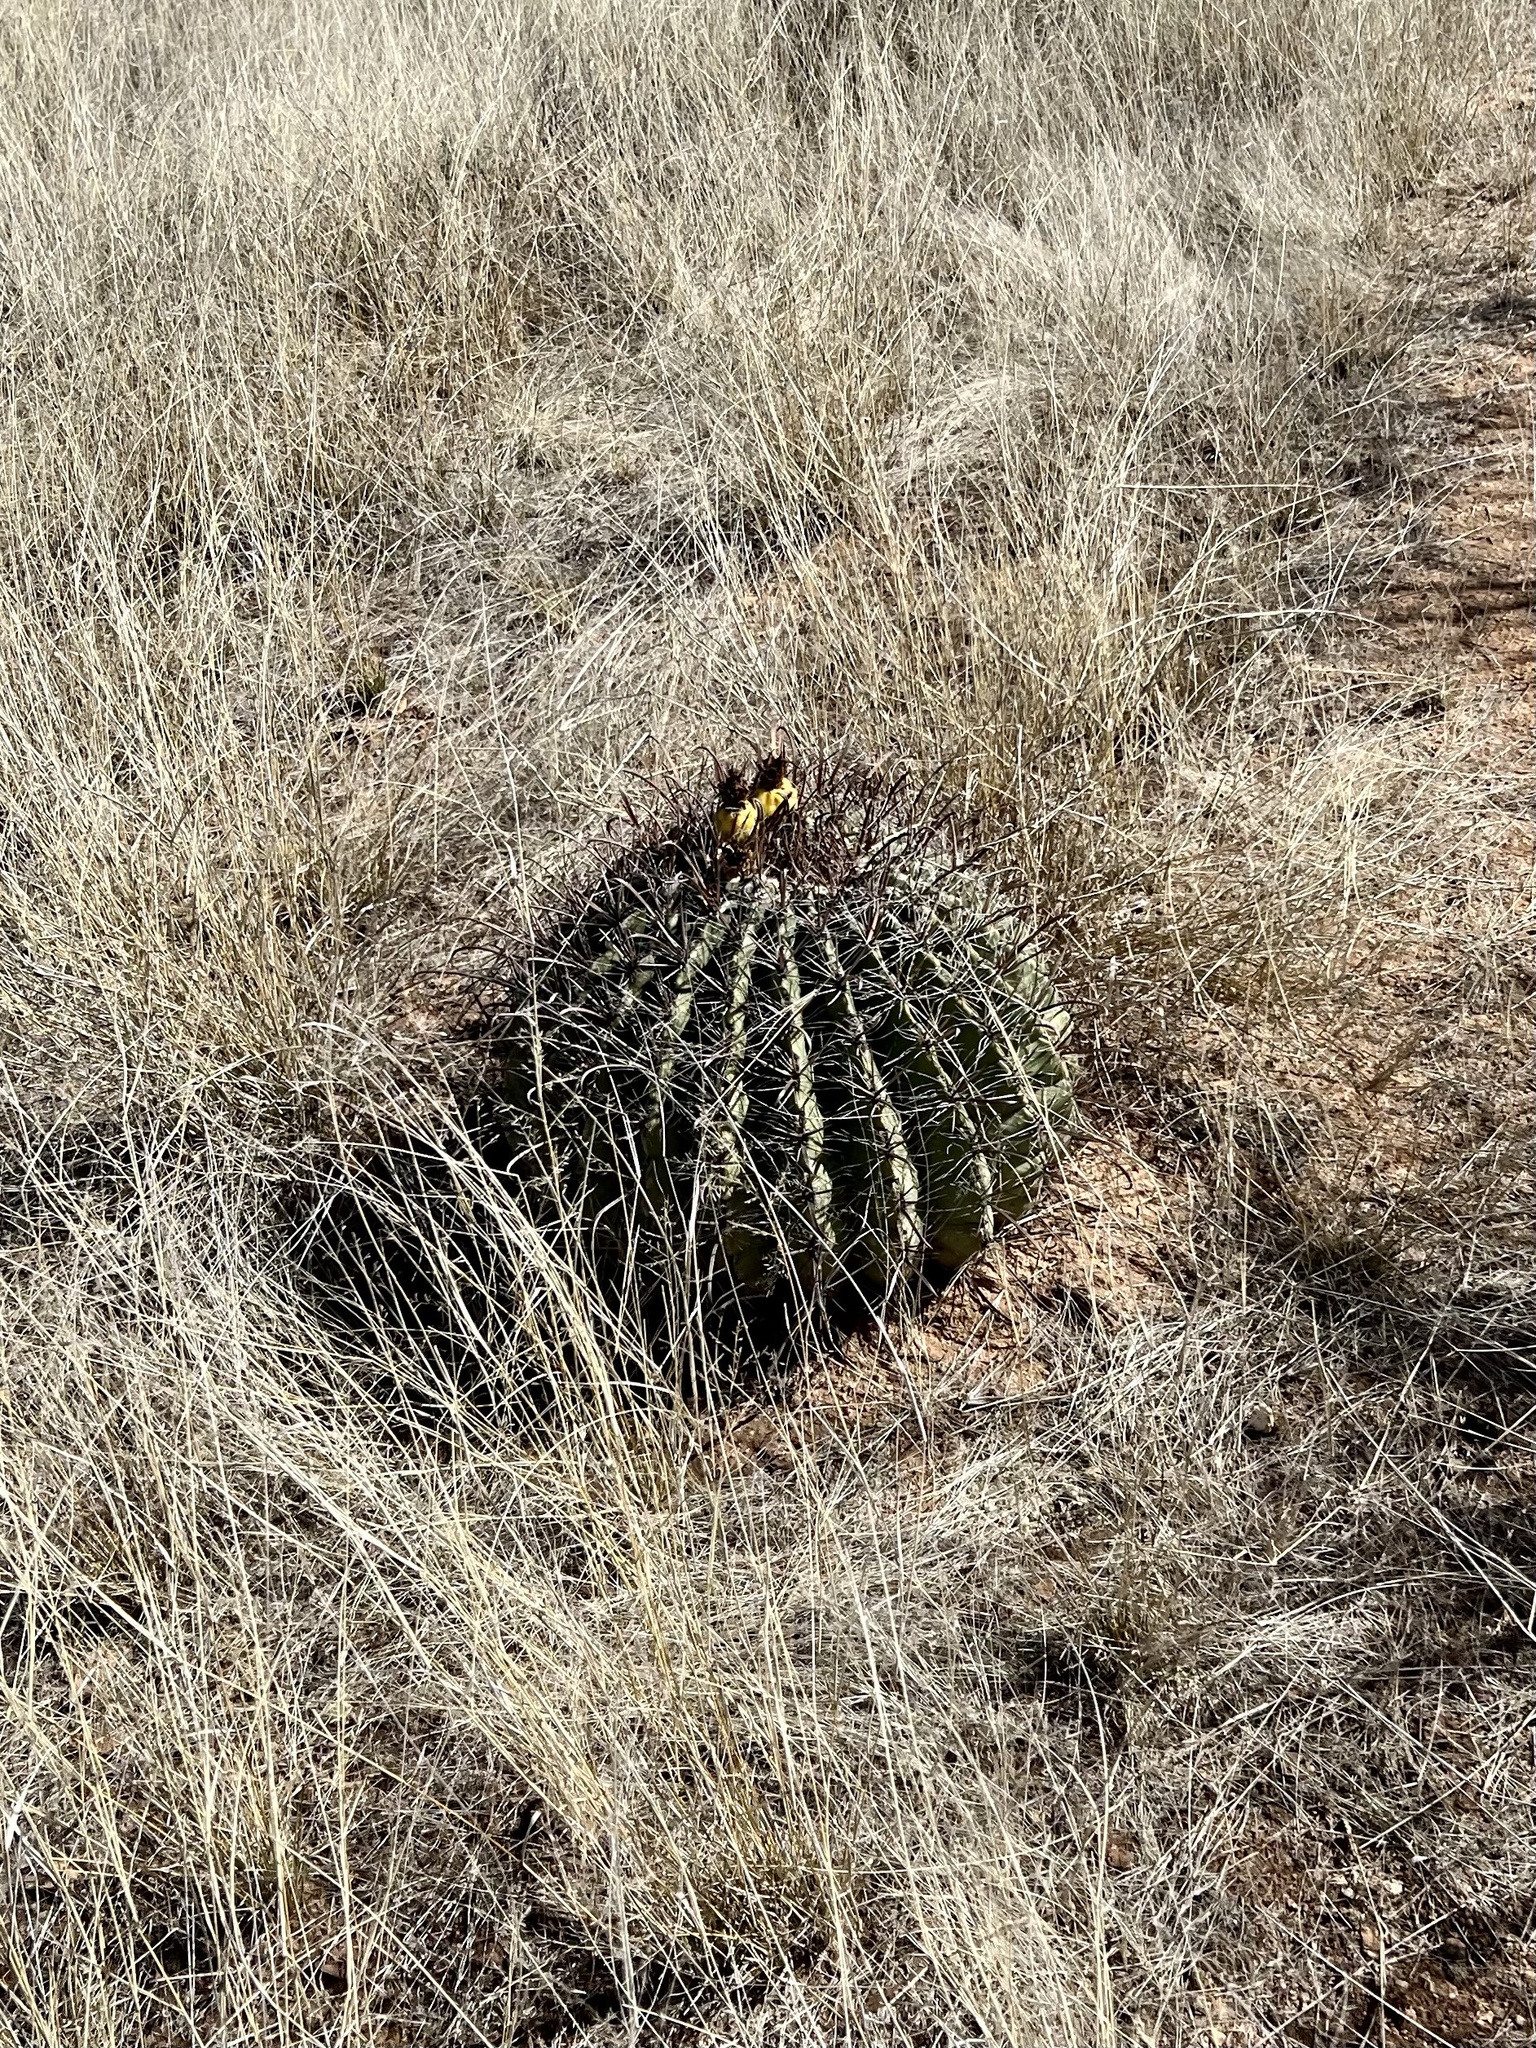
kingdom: Plantae
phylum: Tracheophyta
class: Magnoliopsida
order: Caryophyllales
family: Cactaceae
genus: Ferocactus
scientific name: Ferocactus wislizeni
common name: Candy barrel cactus
